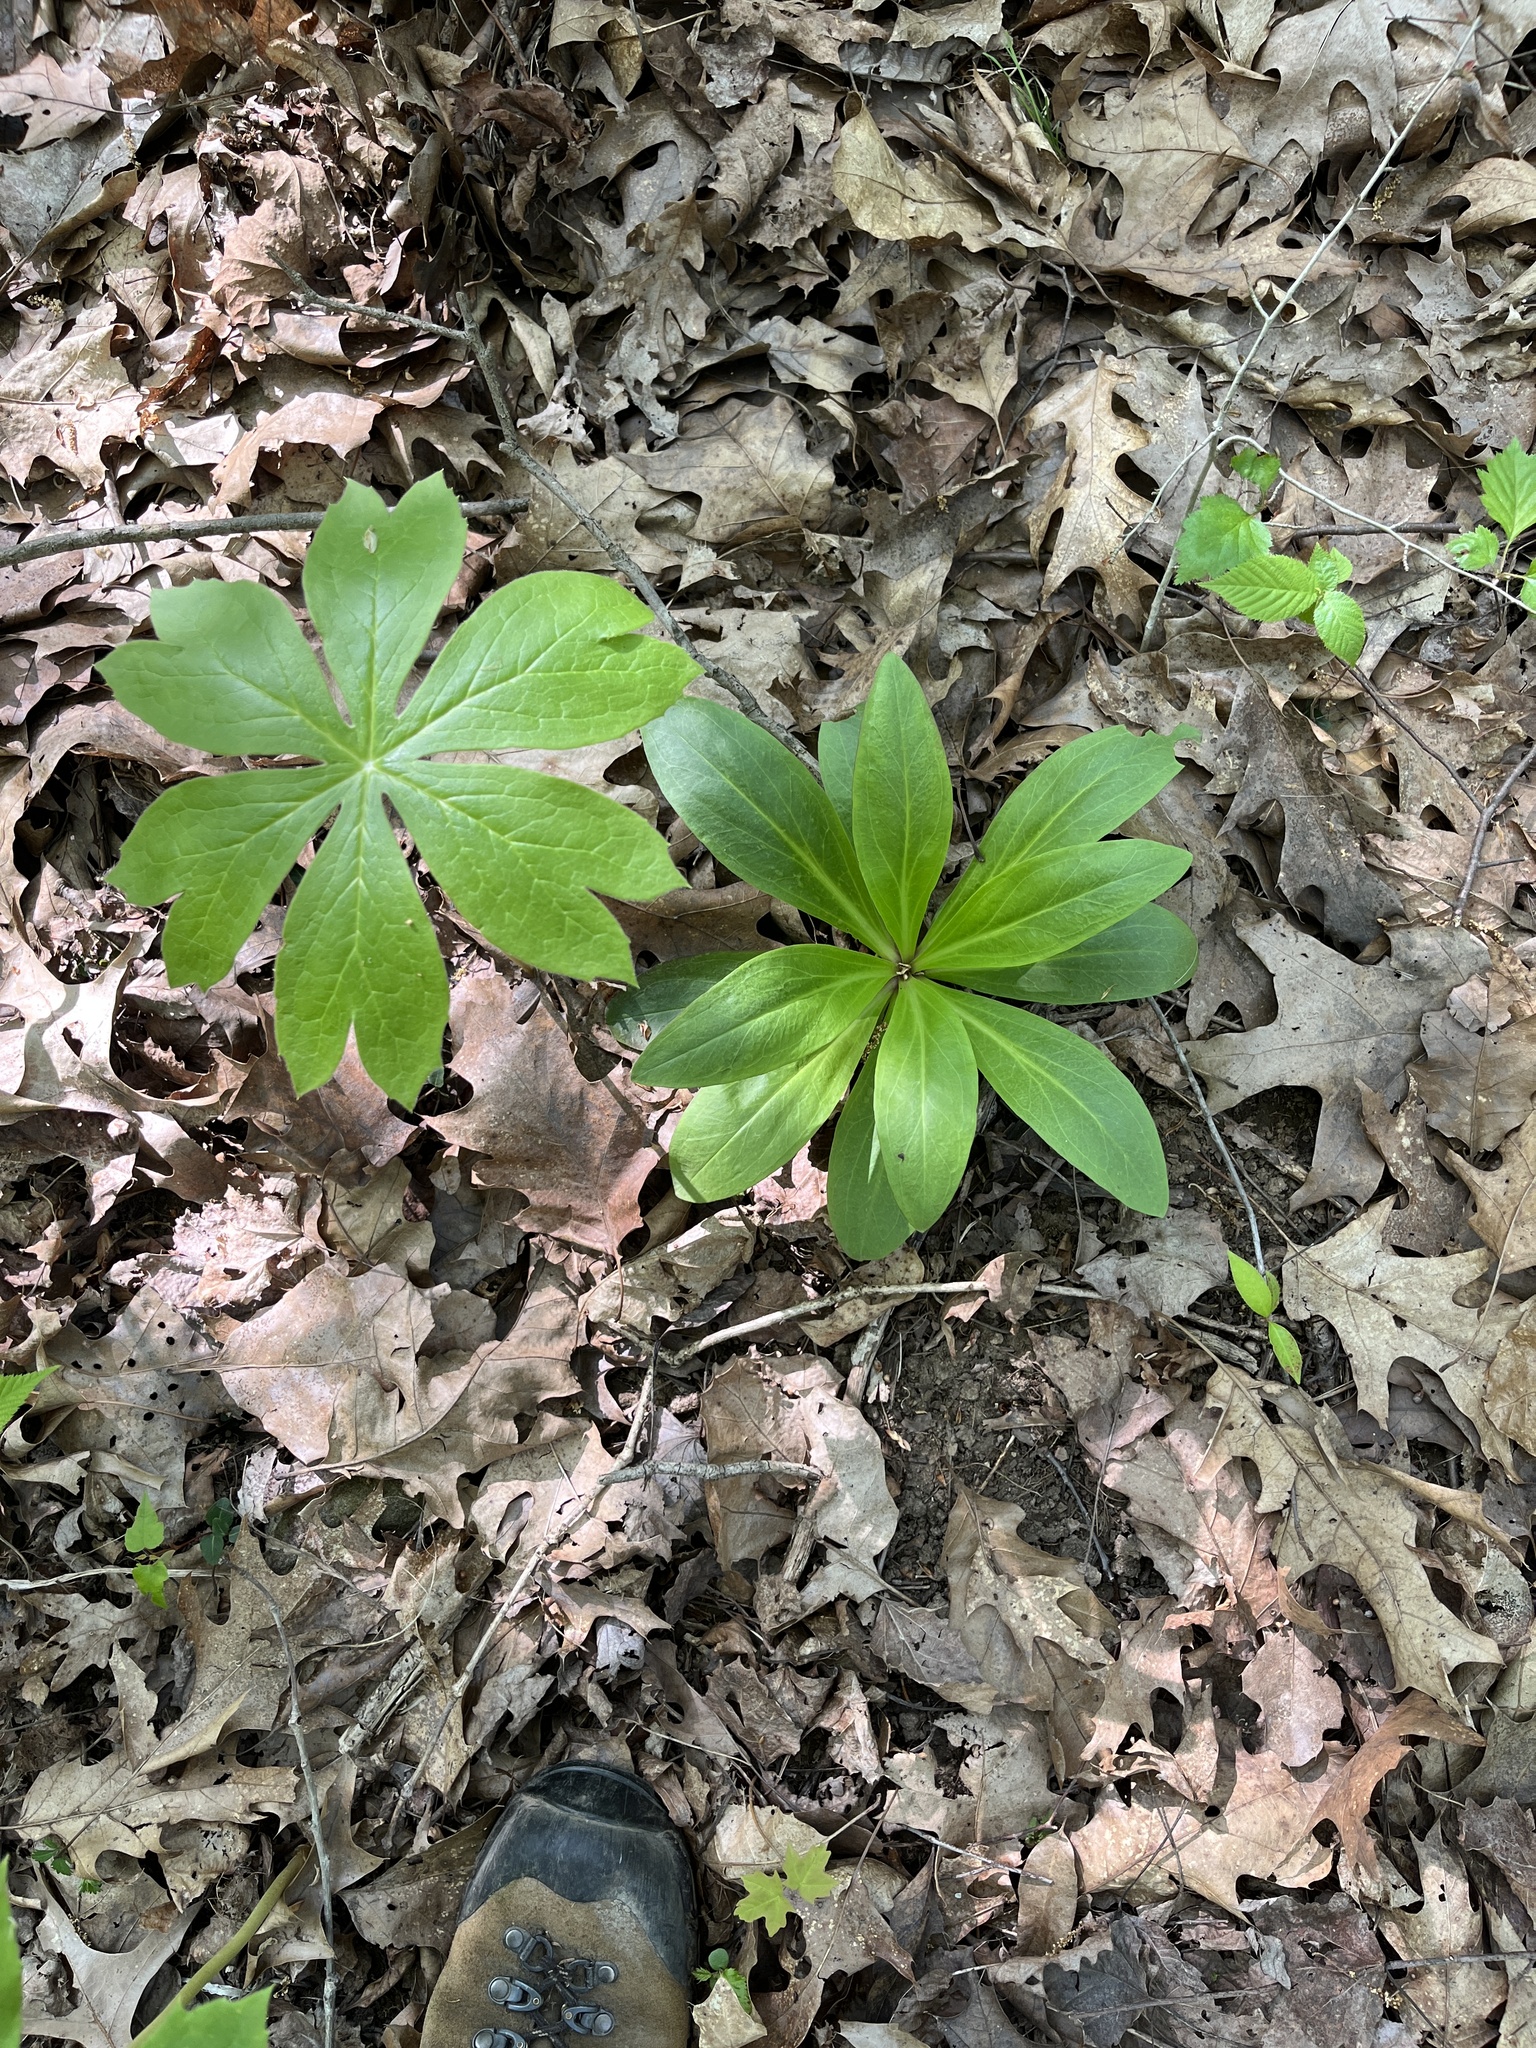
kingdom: Plantae
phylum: Tracheophyta
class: Magnoliopsida
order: Gentianales
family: Gentianaceae
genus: Frasera
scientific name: Frasera caroliniensis
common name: American columbo
